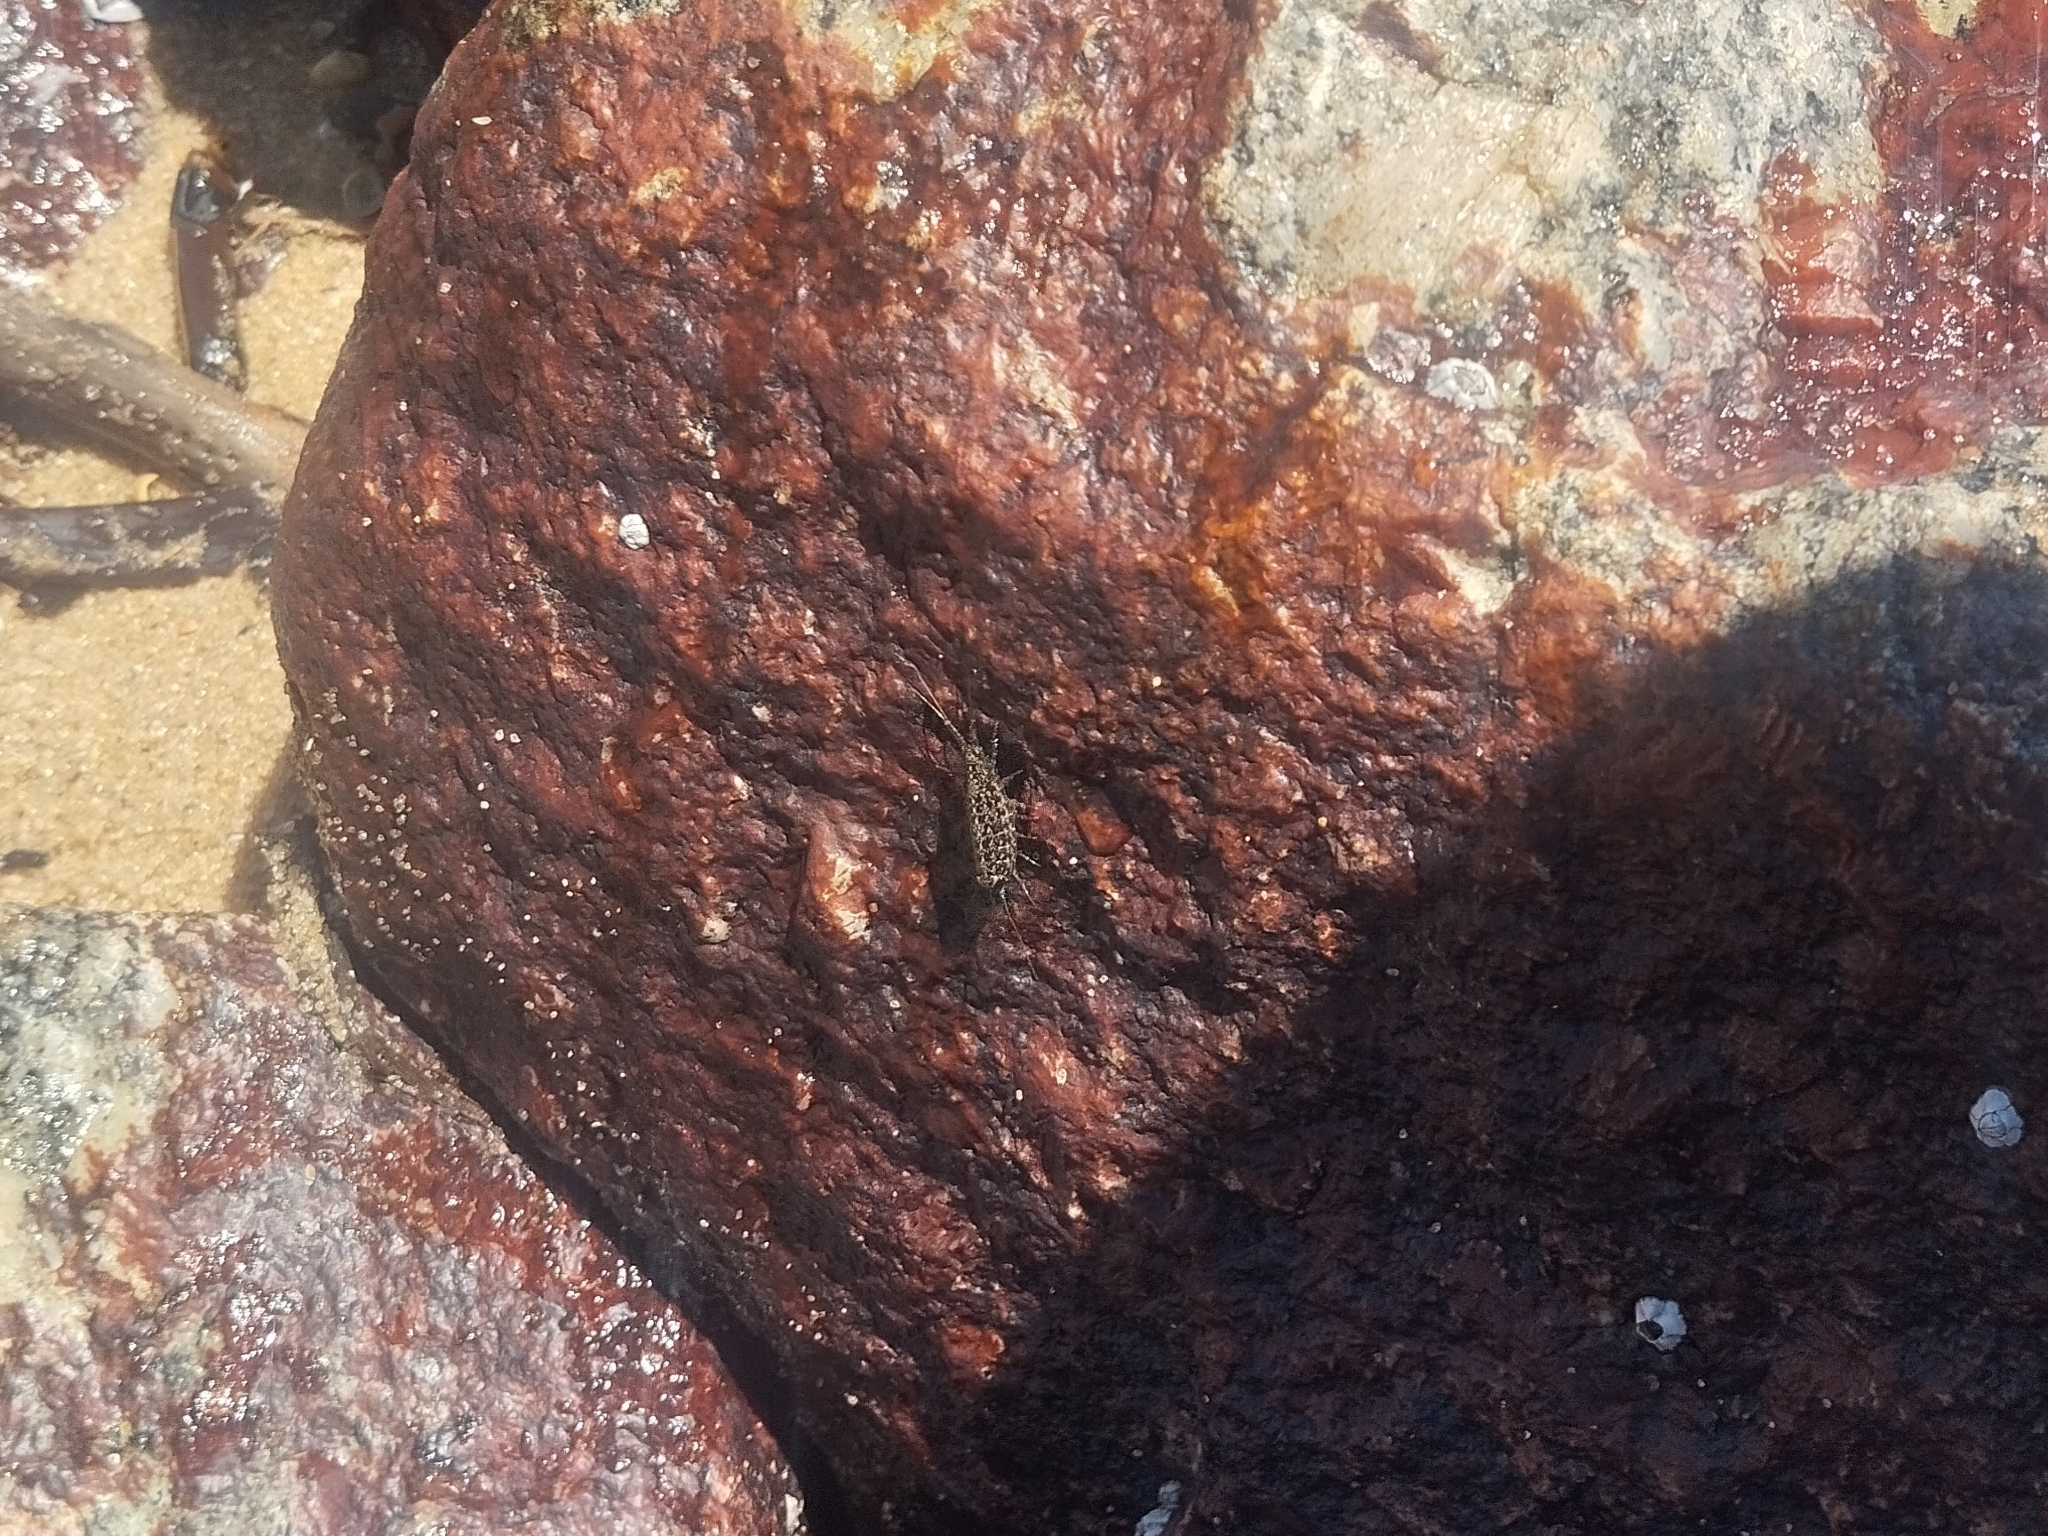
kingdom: Animalia
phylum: Arthropoda
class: Malacostraca
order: Isopoda
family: Ligiidae
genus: Ligia
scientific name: Ligia exotica
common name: Wharf roach
